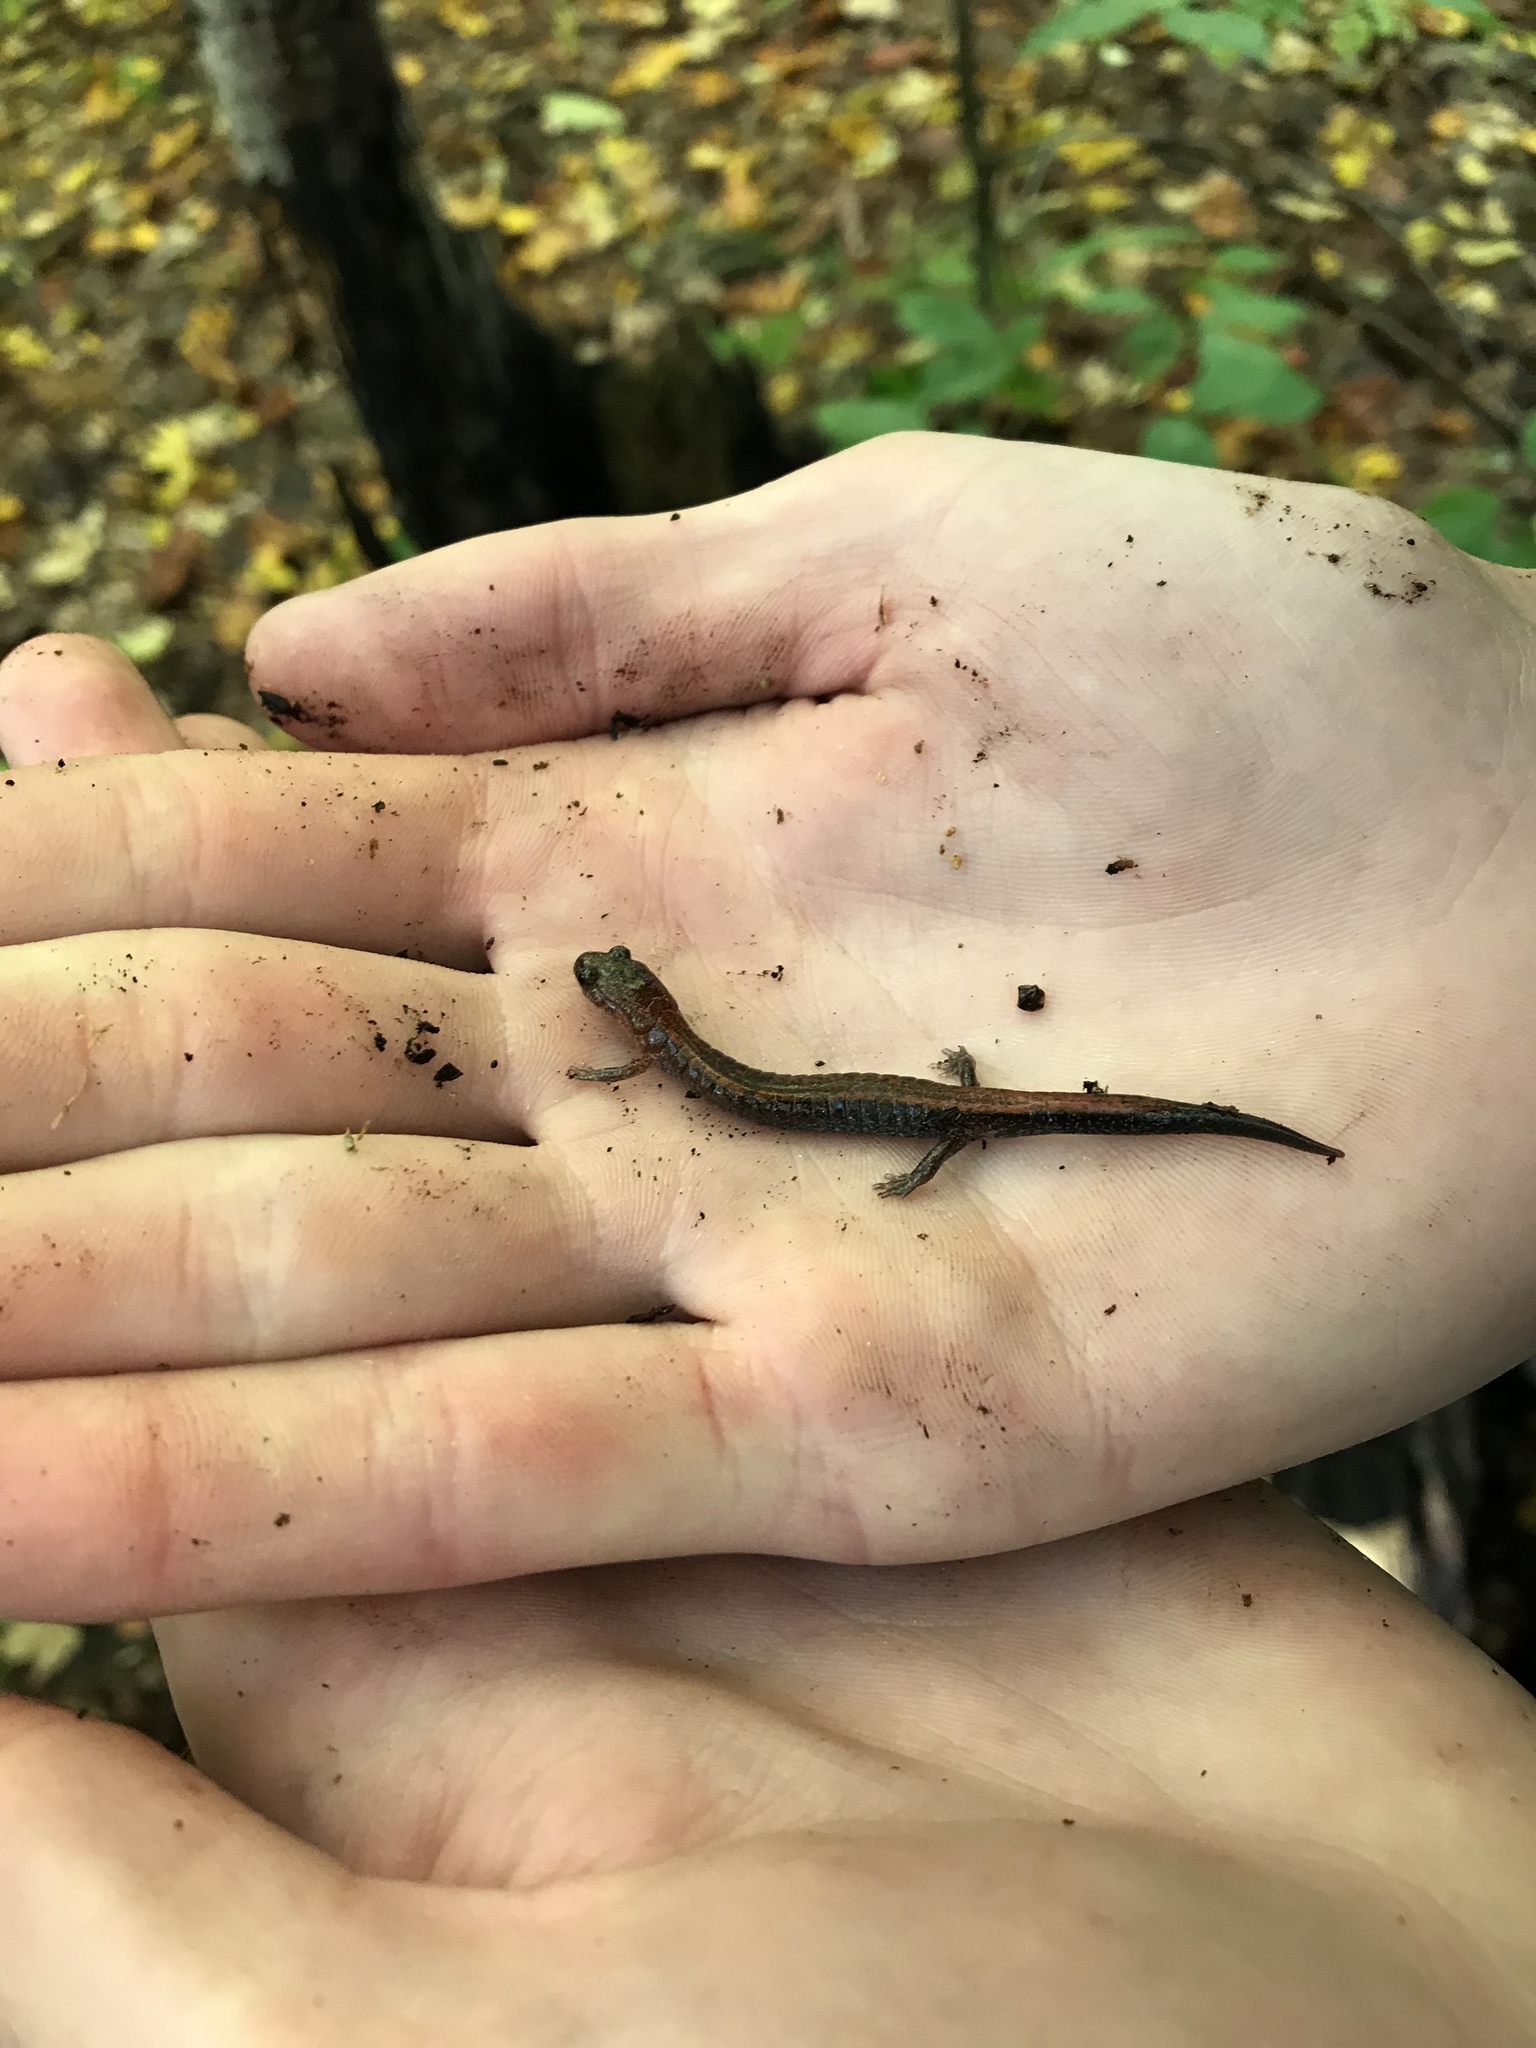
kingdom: Animalia
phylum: Chordata
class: Amphibia
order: Caudata
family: Plethodontidae
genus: Plethodon
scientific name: Plethodon cinereus
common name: Redback salamander
